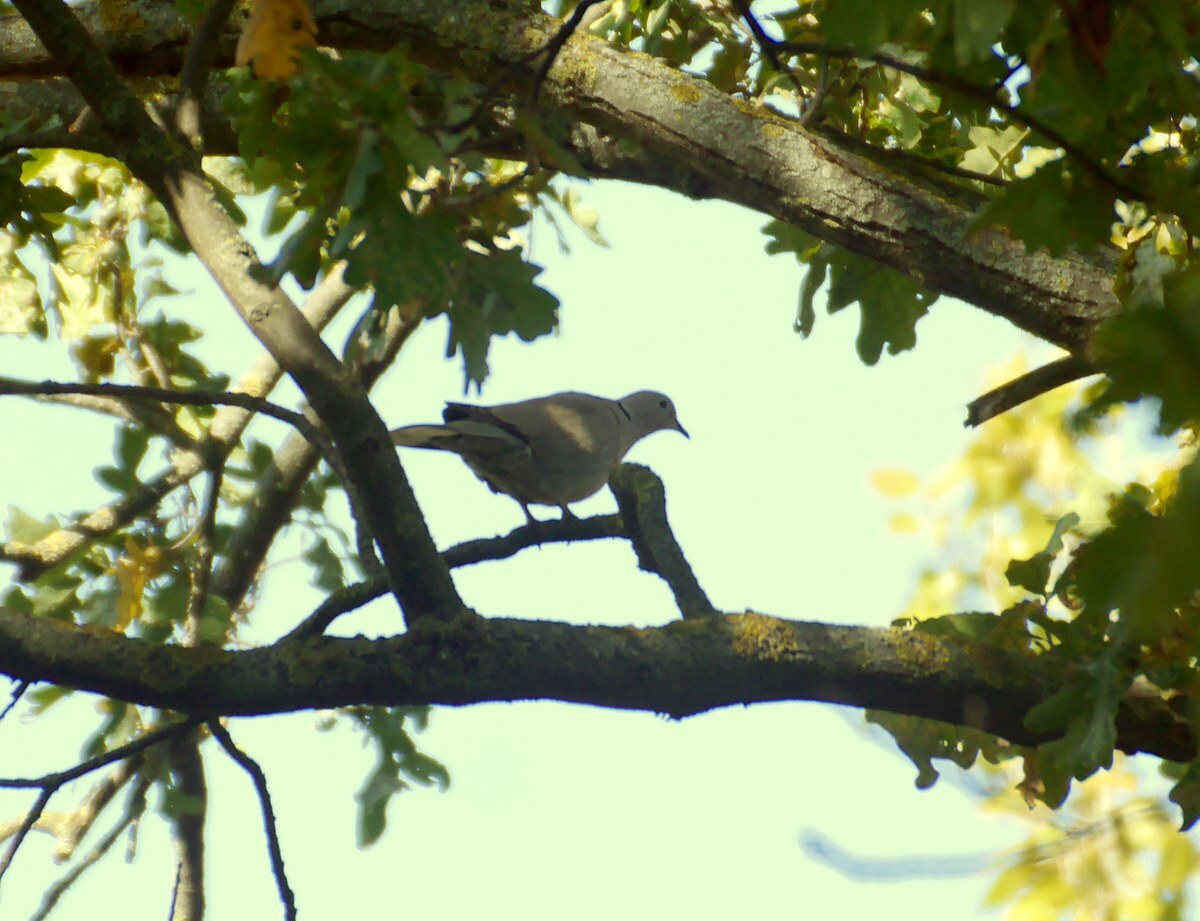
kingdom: Animalia
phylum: Chordata
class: Aves
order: Columbiformes
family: Columbidae
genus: Streptopelia
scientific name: Streptopelia decaocto
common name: Eurasian collared dove
